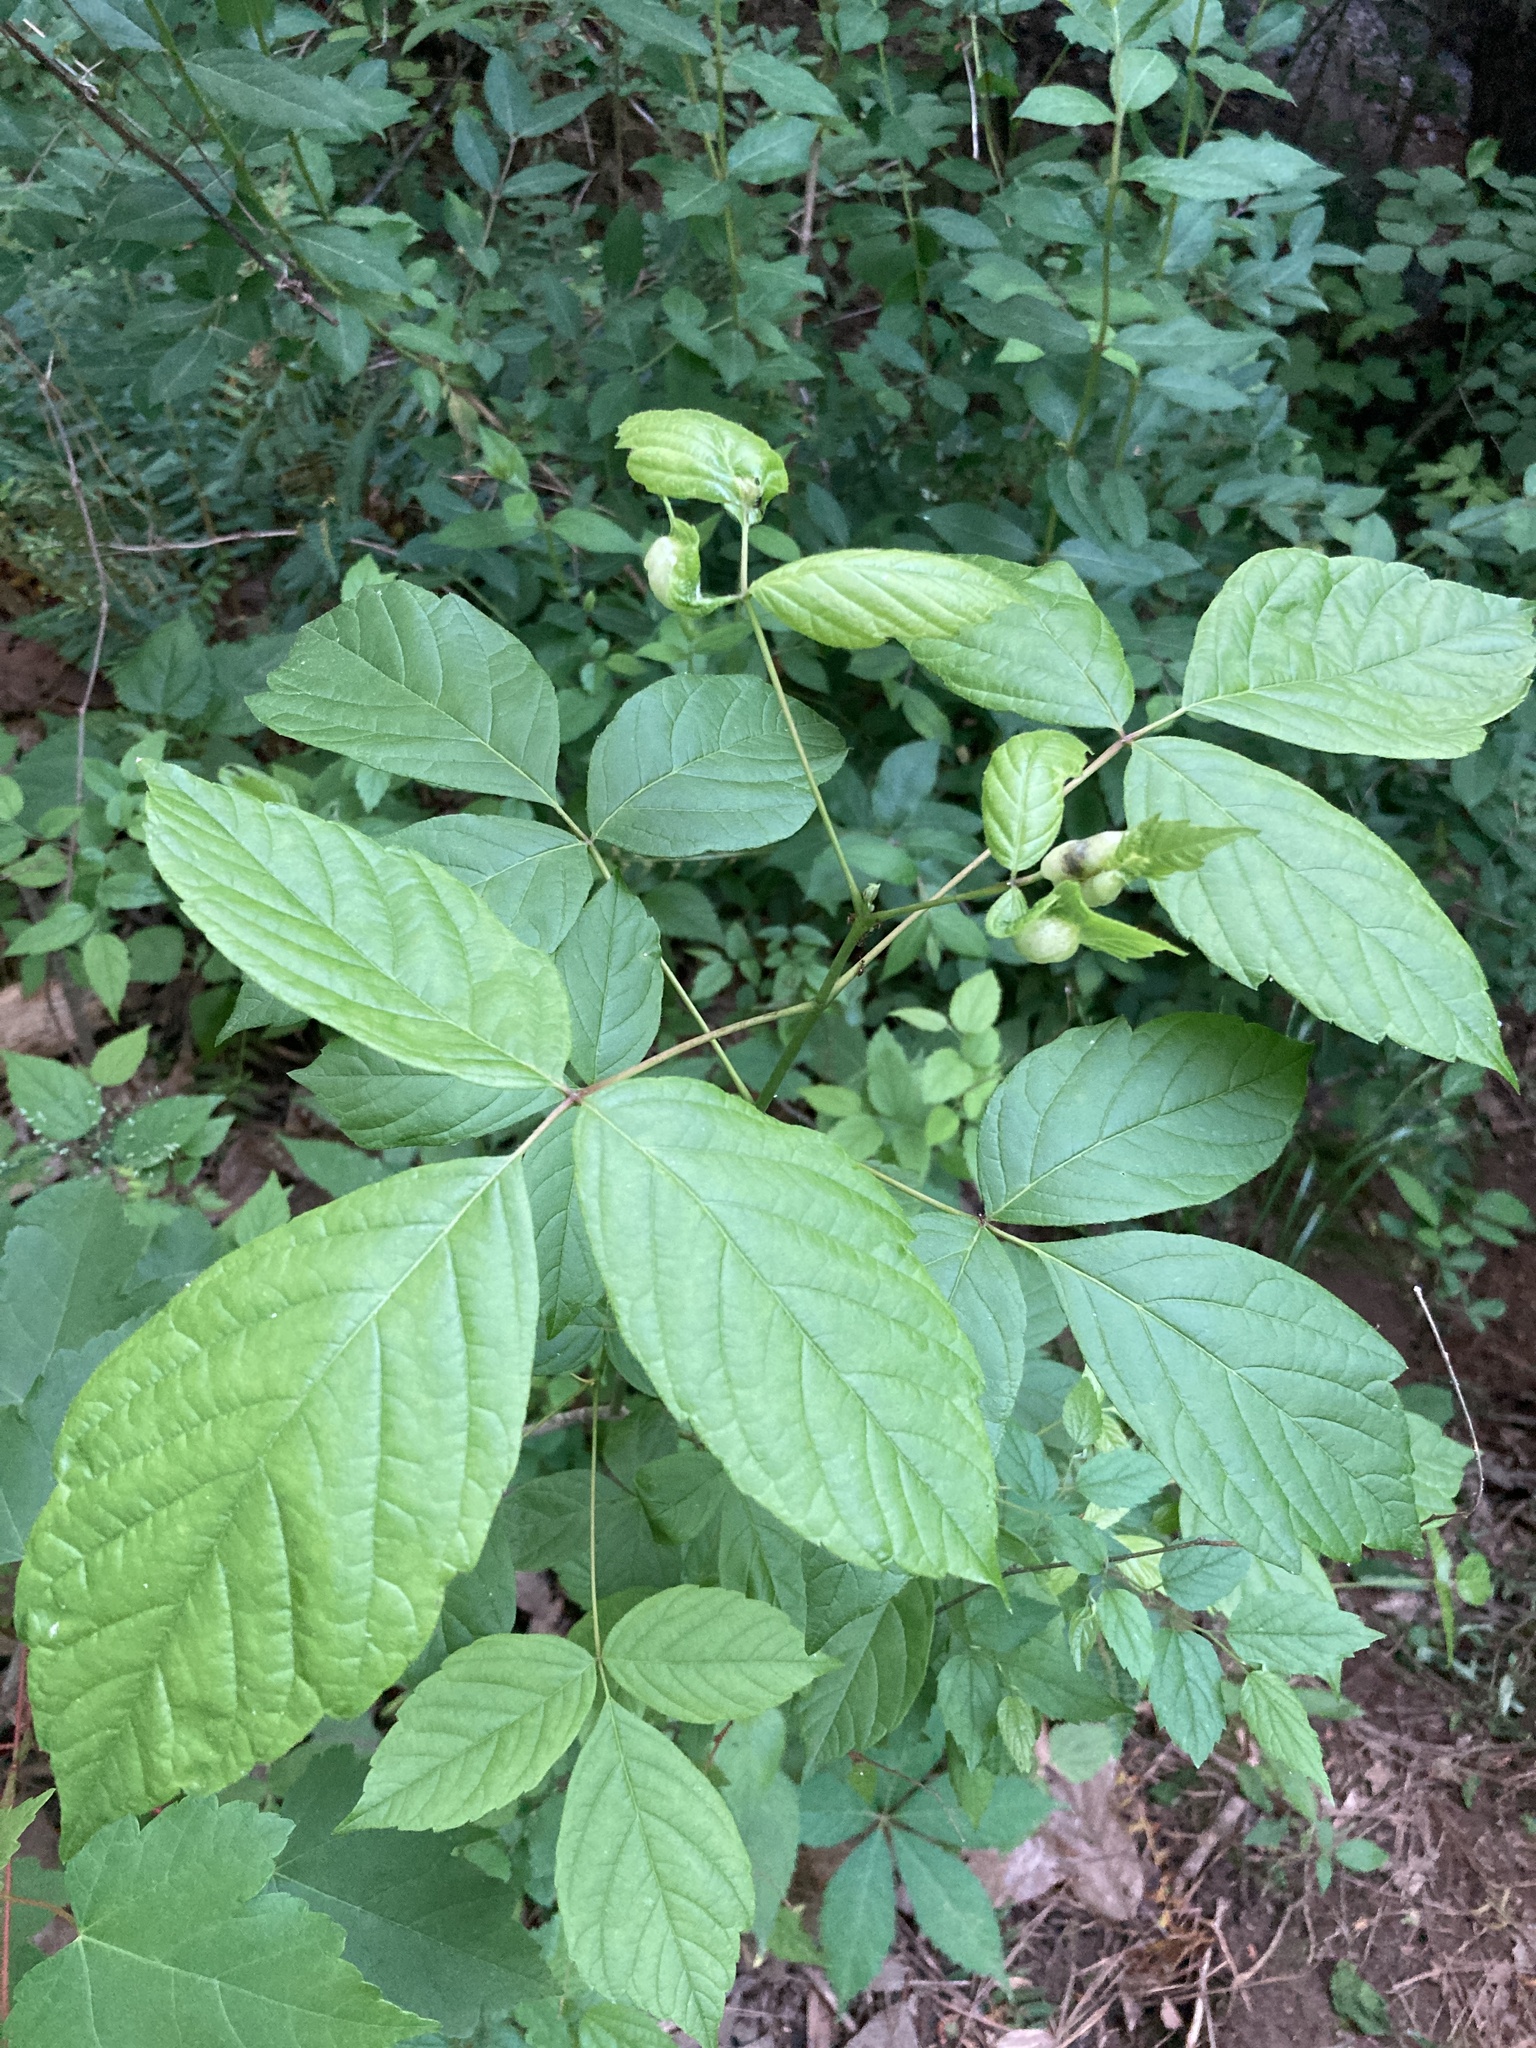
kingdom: Animalia
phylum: Arthropoda
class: Insecta
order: Diptera
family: Cecidomyiidae
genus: Contarinia
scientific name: Contarinia negundinis
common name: Boxelder budgall midge
